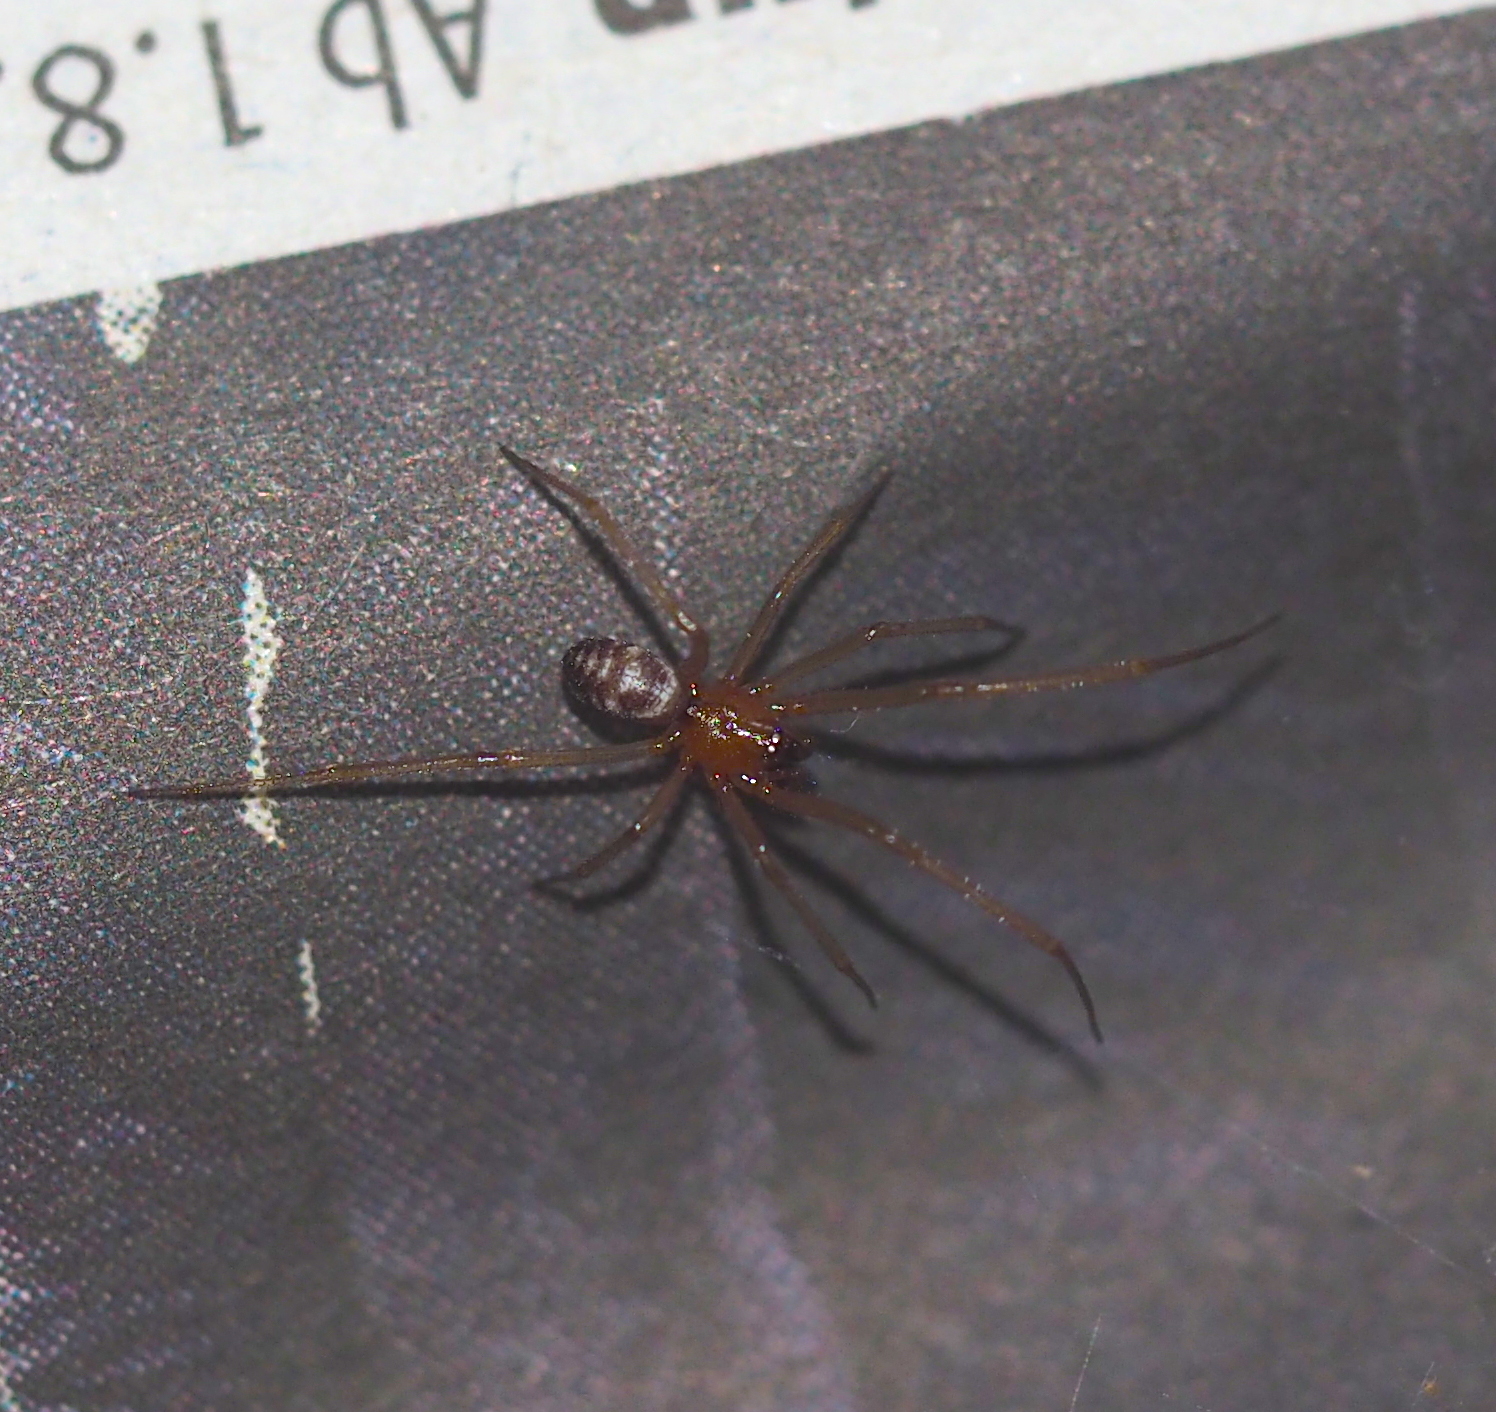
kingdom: Animalia
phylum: Arthropoda
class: Arachnida
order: Araneae
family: Theridiidae
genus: Steatoda
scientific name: Steatoda grossa
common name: False black widow
